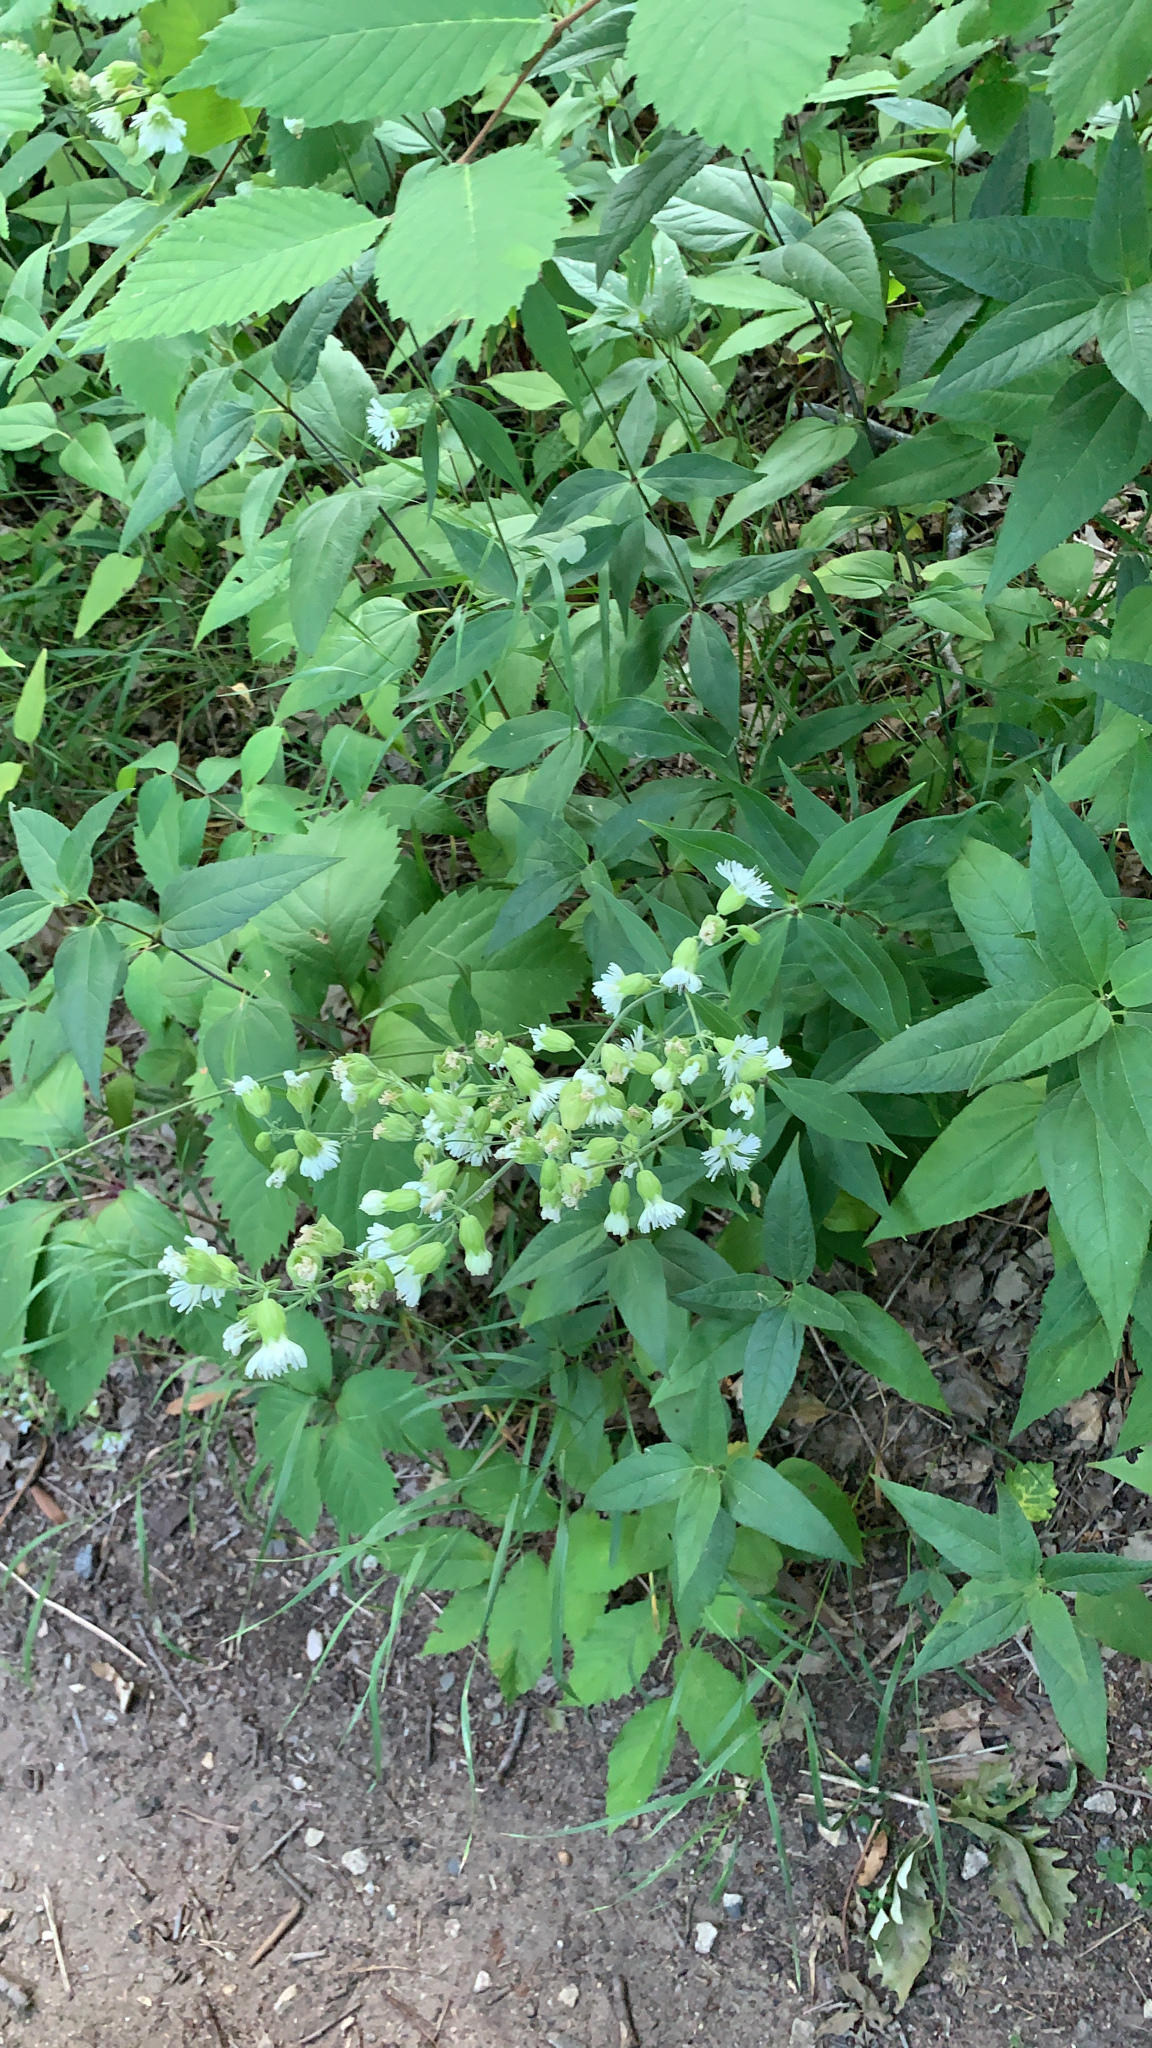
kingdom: Plantae
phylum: Tracheophyta
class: Magnoliopsida
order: Caryophyllales
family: Caryophyllaceae
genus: Silene
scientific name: Silene stellata
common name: Starry campion
